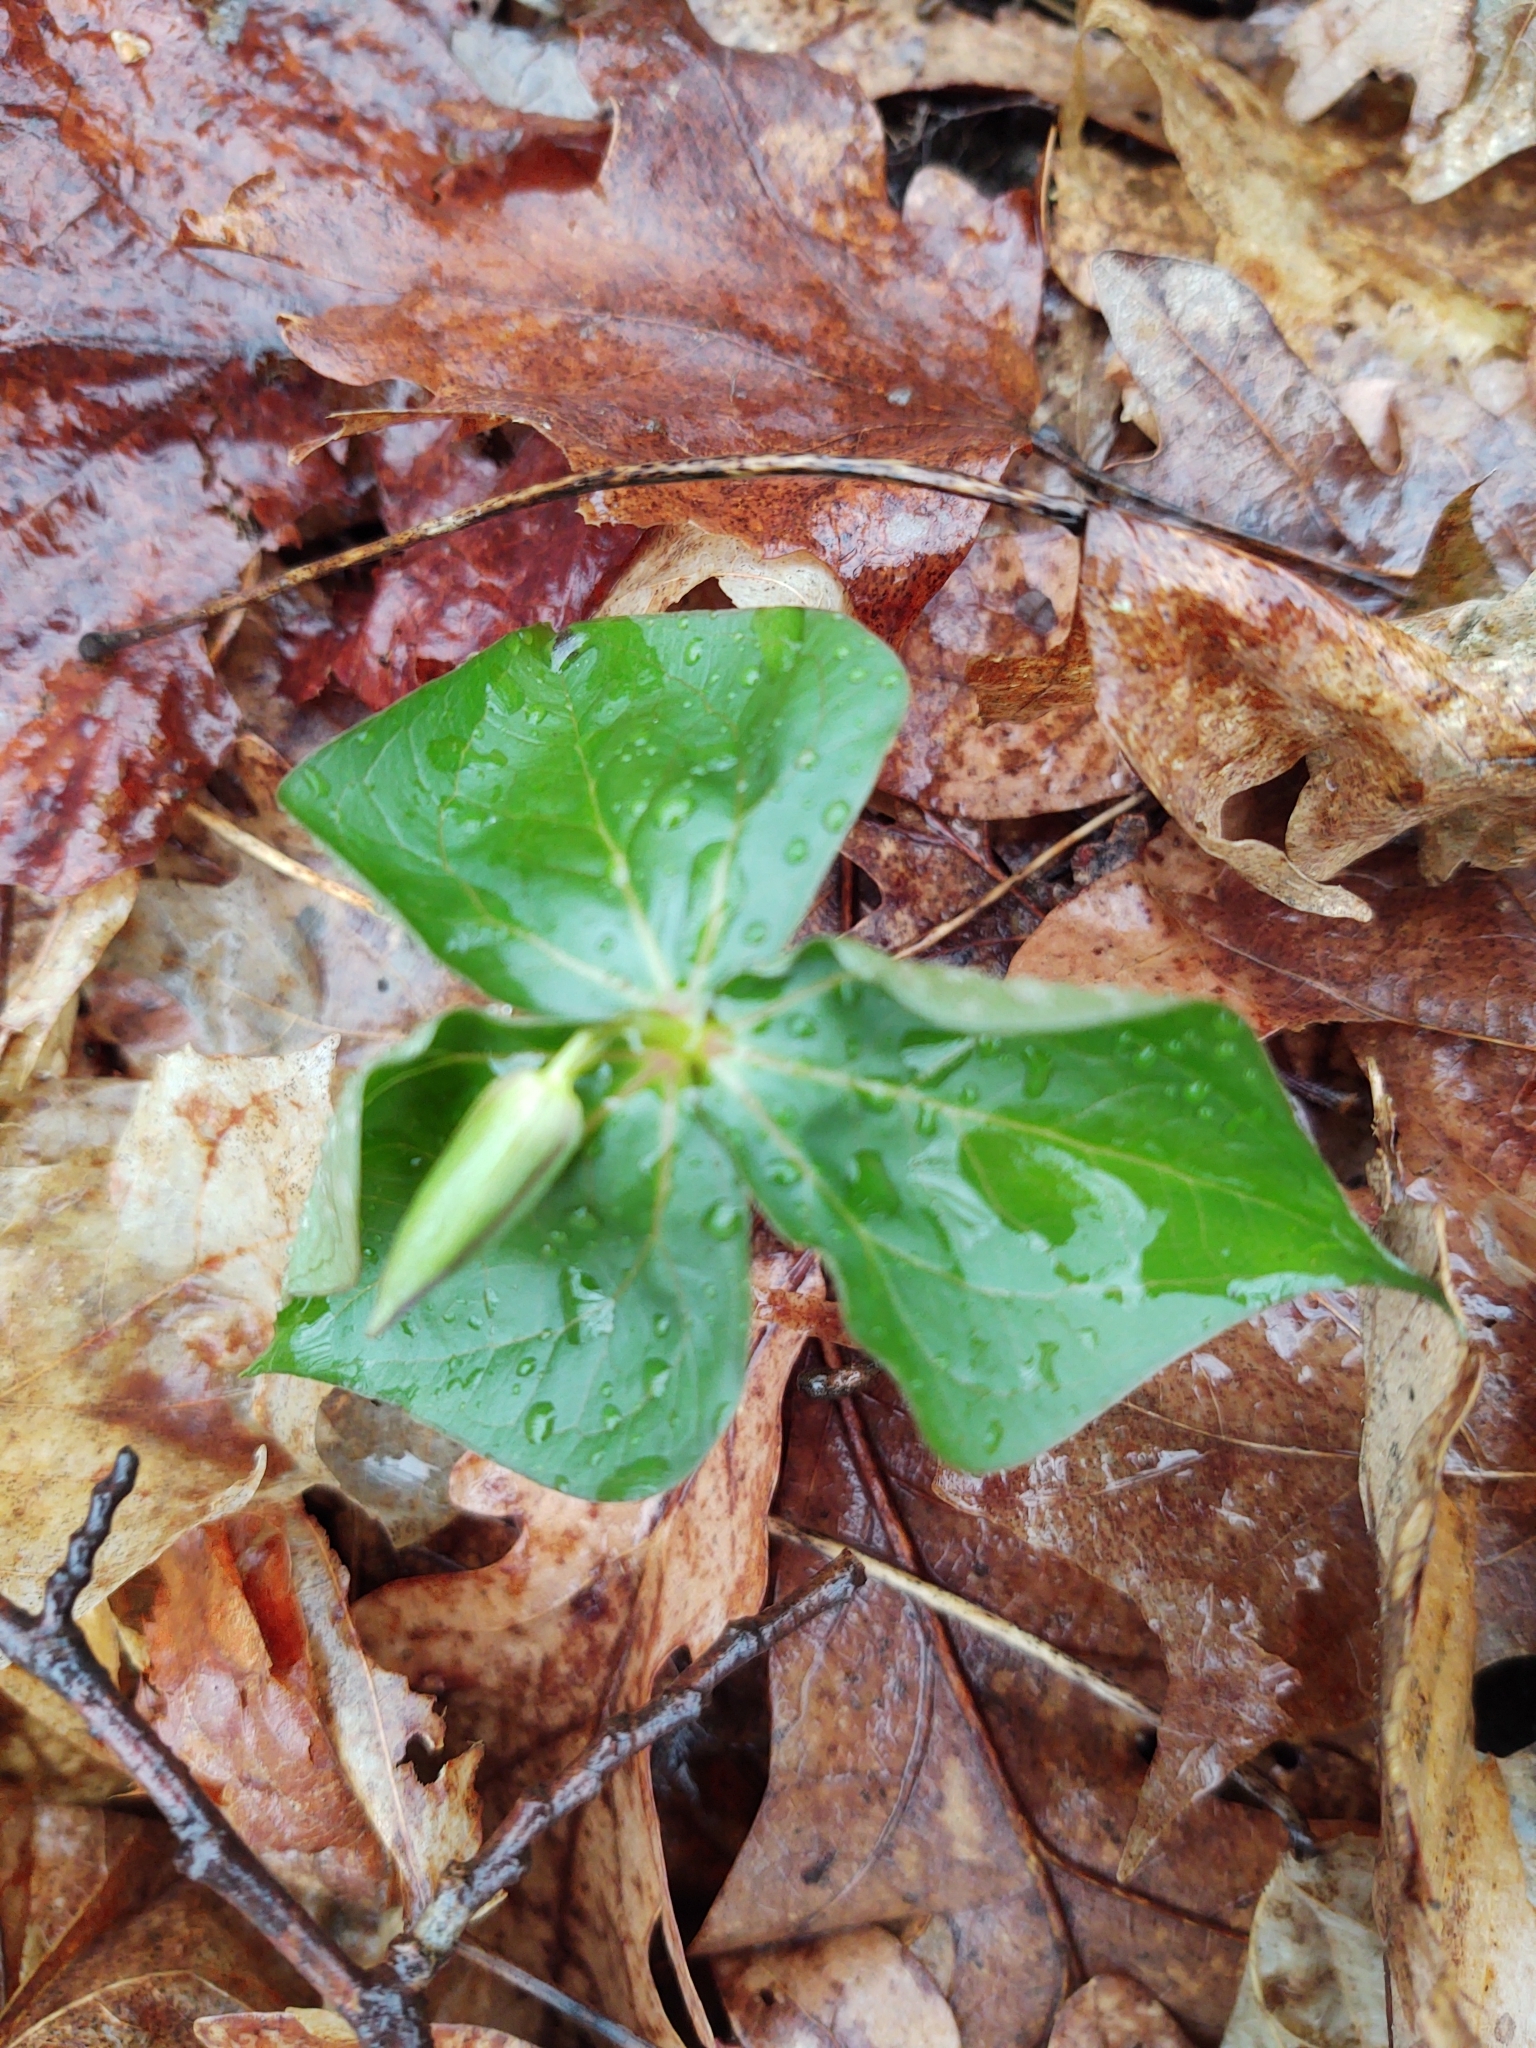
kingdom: Plantae
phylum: Tracheophyta
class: Liliopsida
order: Liliales
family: Melanthiaceae
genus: Trillium
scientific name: Trillium erectum
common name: Purple trillium
